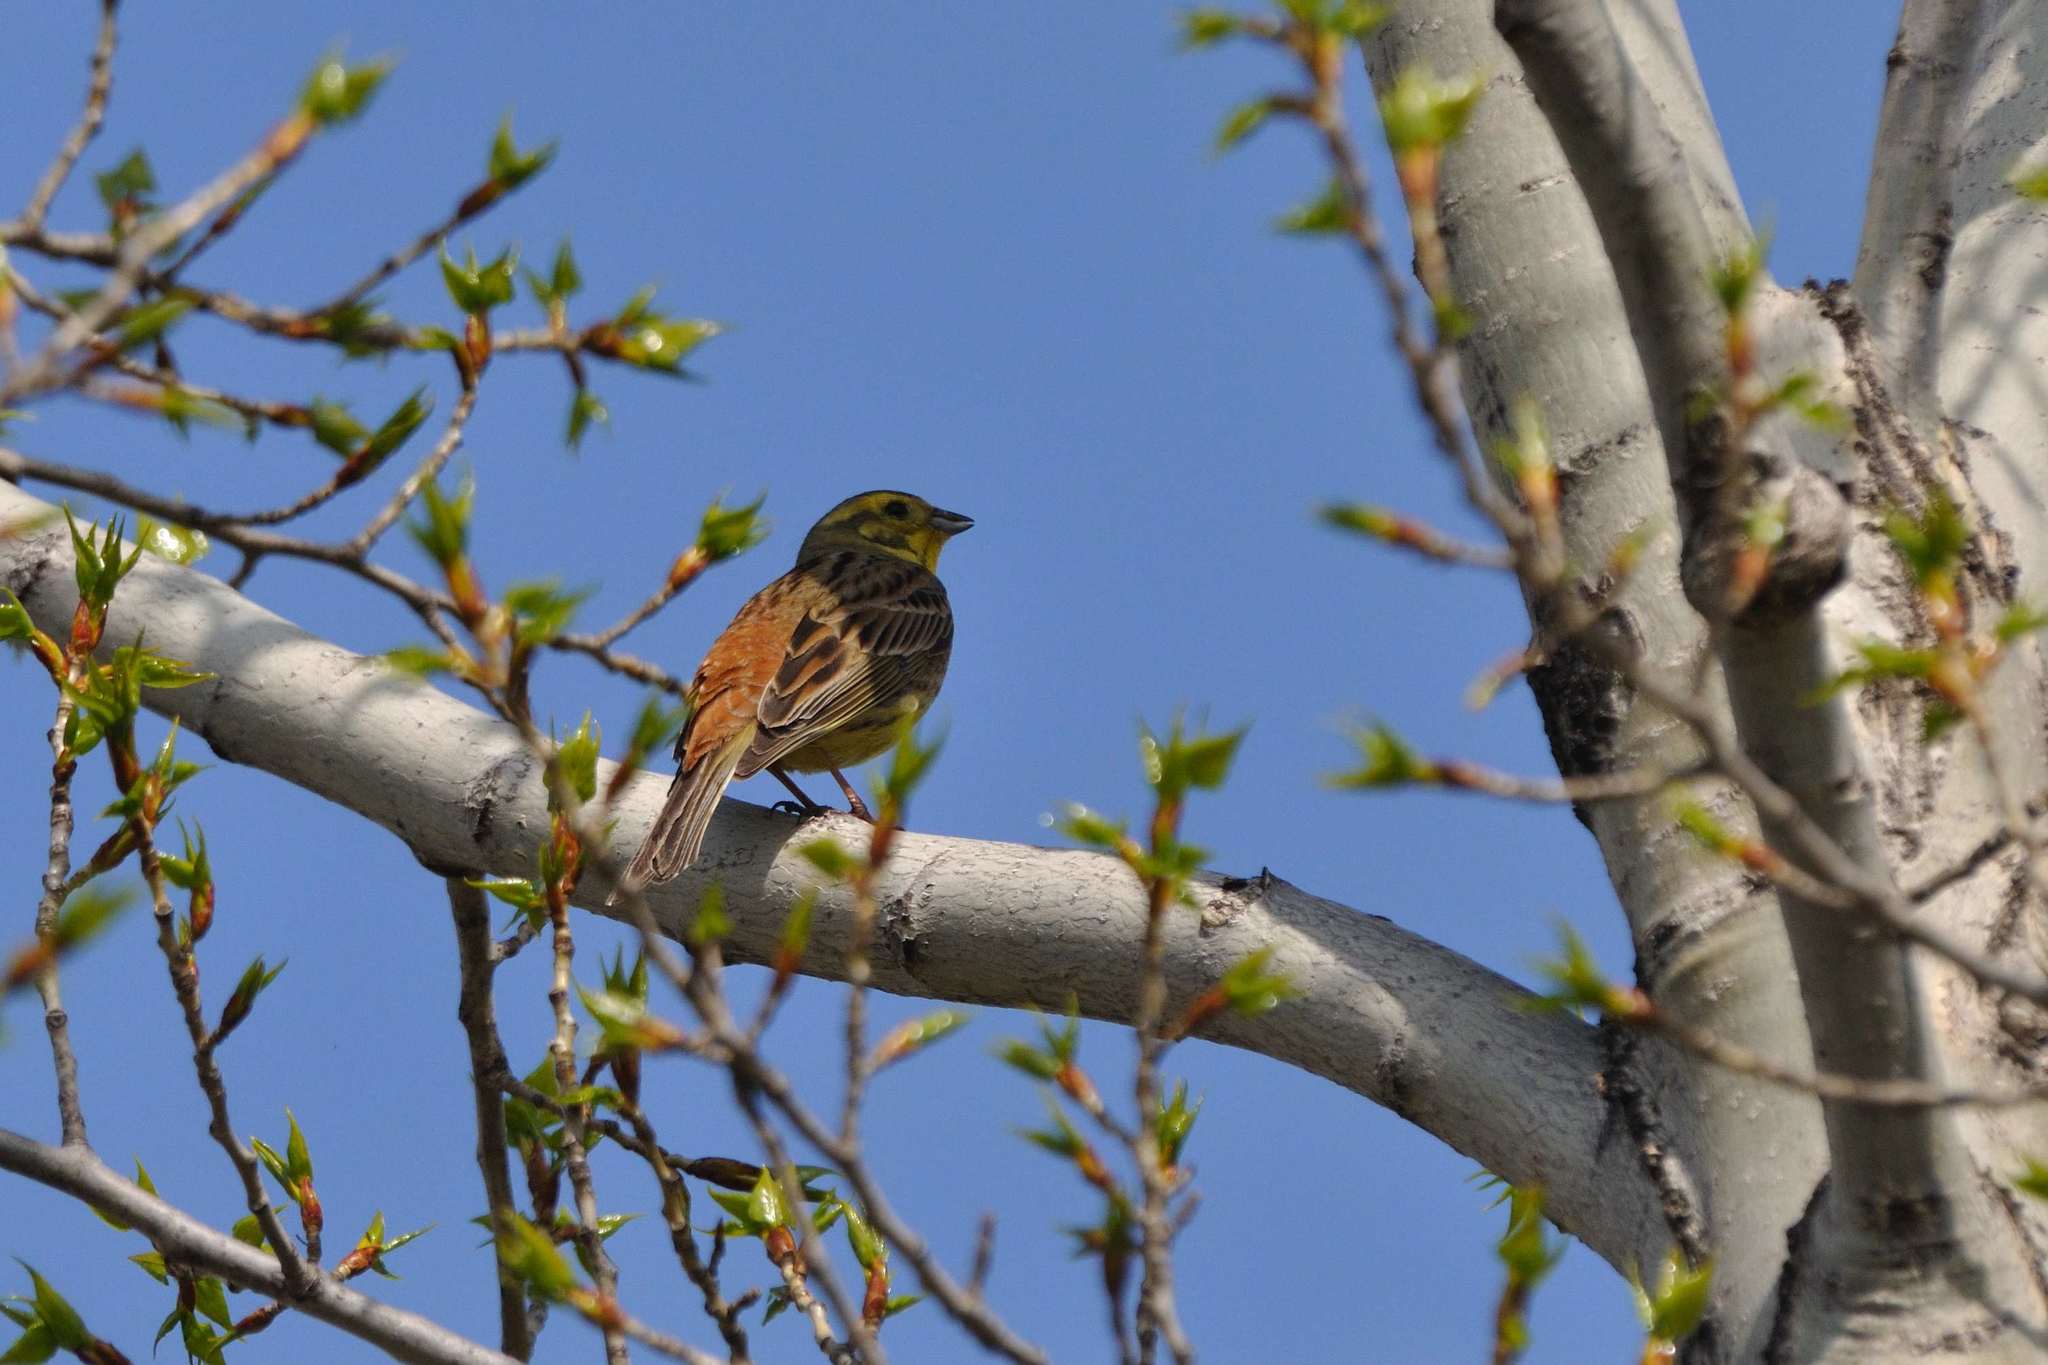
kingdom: Animalia
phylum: Chordata
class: Aves
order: Passeriformes
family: Emberizidae
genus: Emberiza
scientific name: Emberiza citrinella
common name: Yellowhammer
